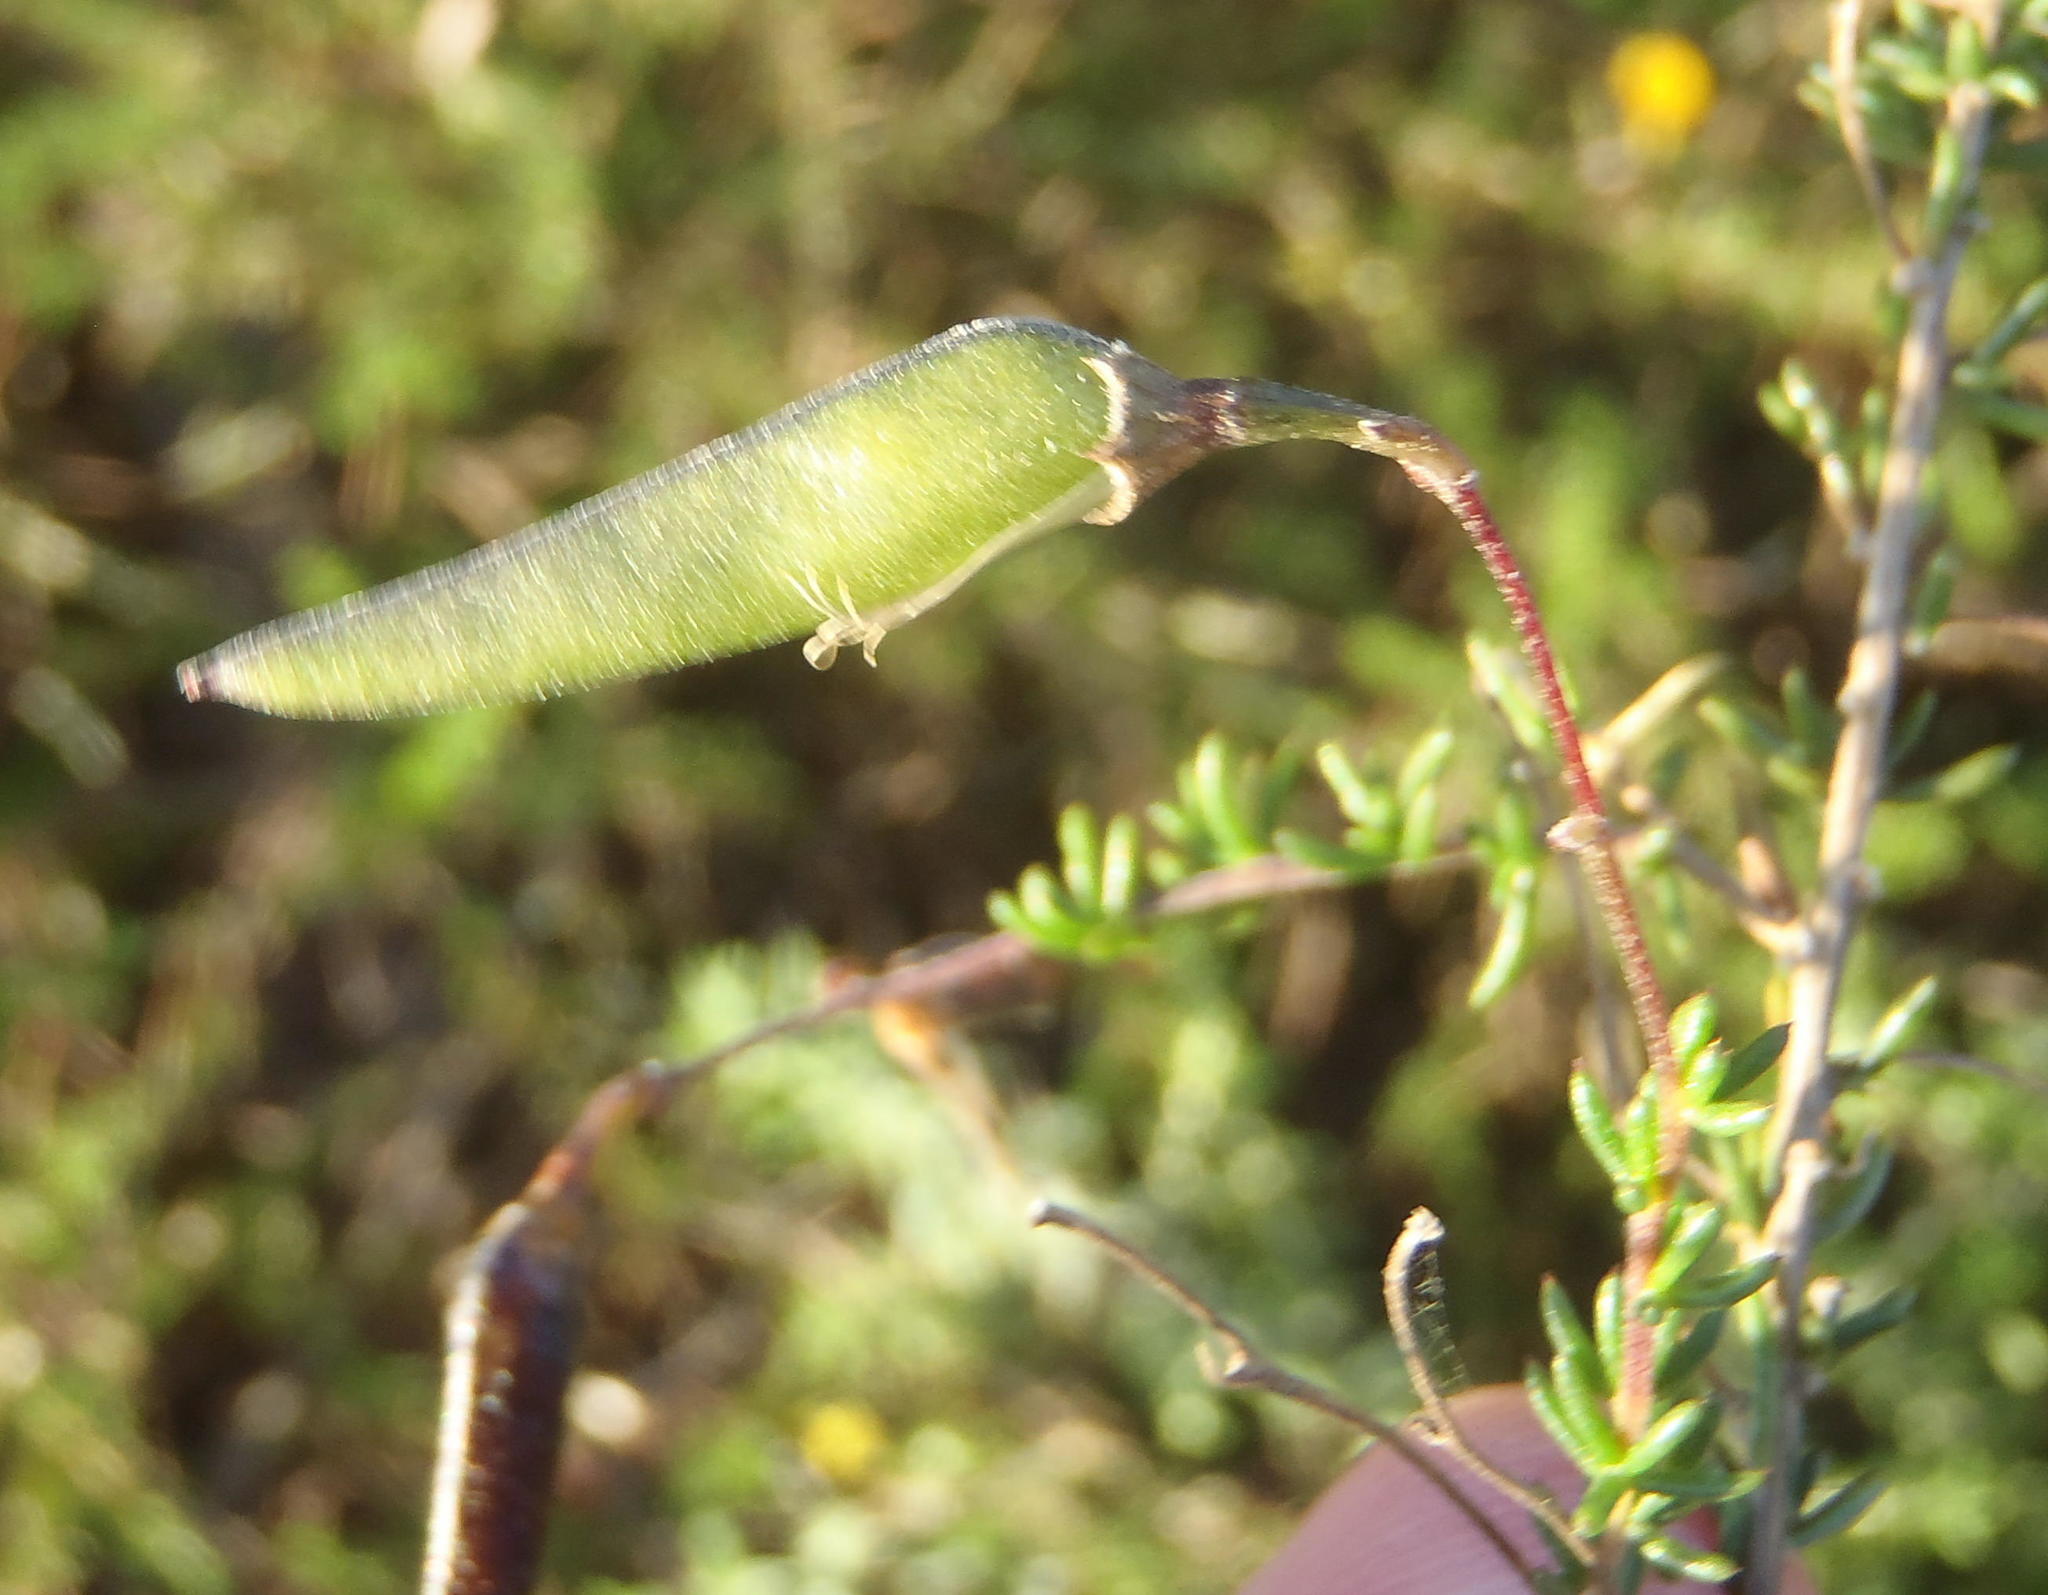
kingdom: Plantae
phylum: Tracheophyta
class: Magnoliopsida
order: Fabales
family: Fabaceae
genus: Aspalathus
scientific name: Aspalathus biflora
